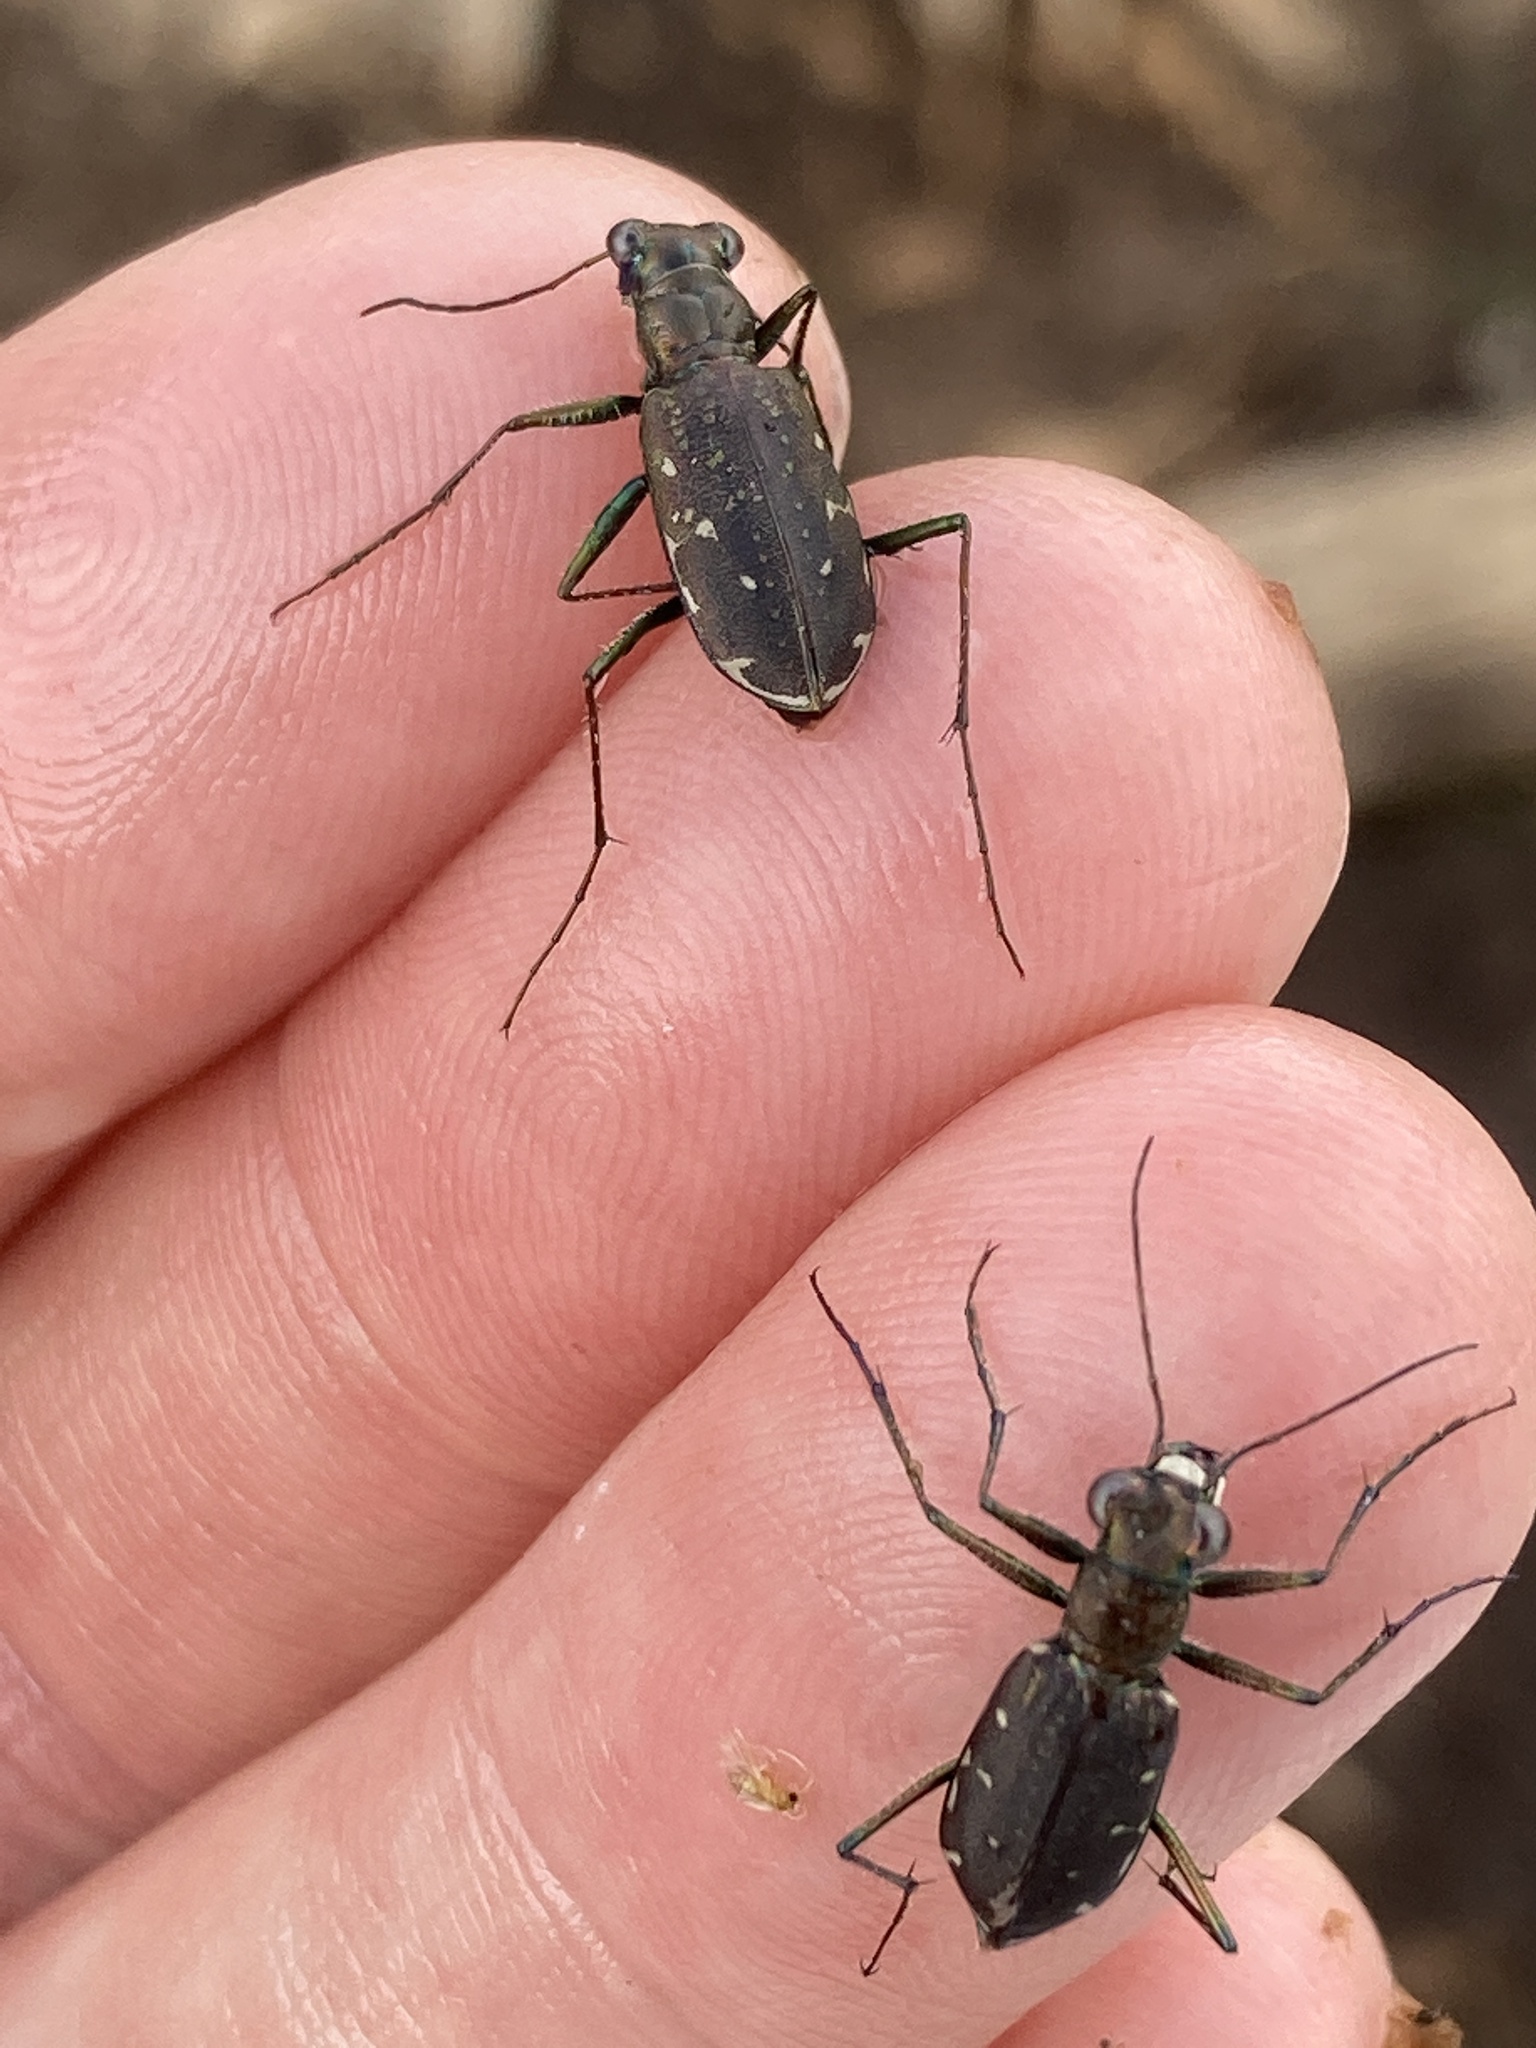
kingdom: Animalia
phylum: Arthropoda
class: Insecta
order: Coleoptera
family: Carabidae
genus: Cicindela
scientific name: Cicindela punctulata
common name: Punctured tiger beetle
